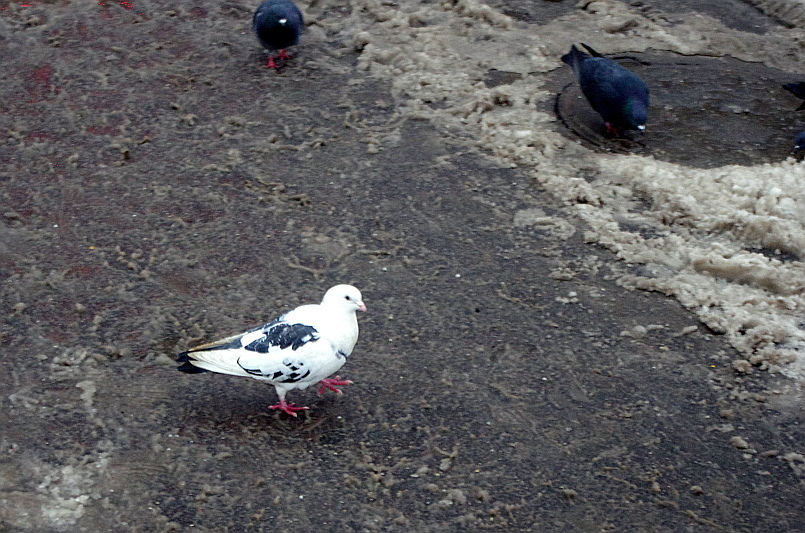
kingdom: Animalia
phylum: Chordata
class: Aves
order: Columbiformes
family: Columbidae
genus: Columba
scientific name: Columba livia
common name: Rock pigeon
